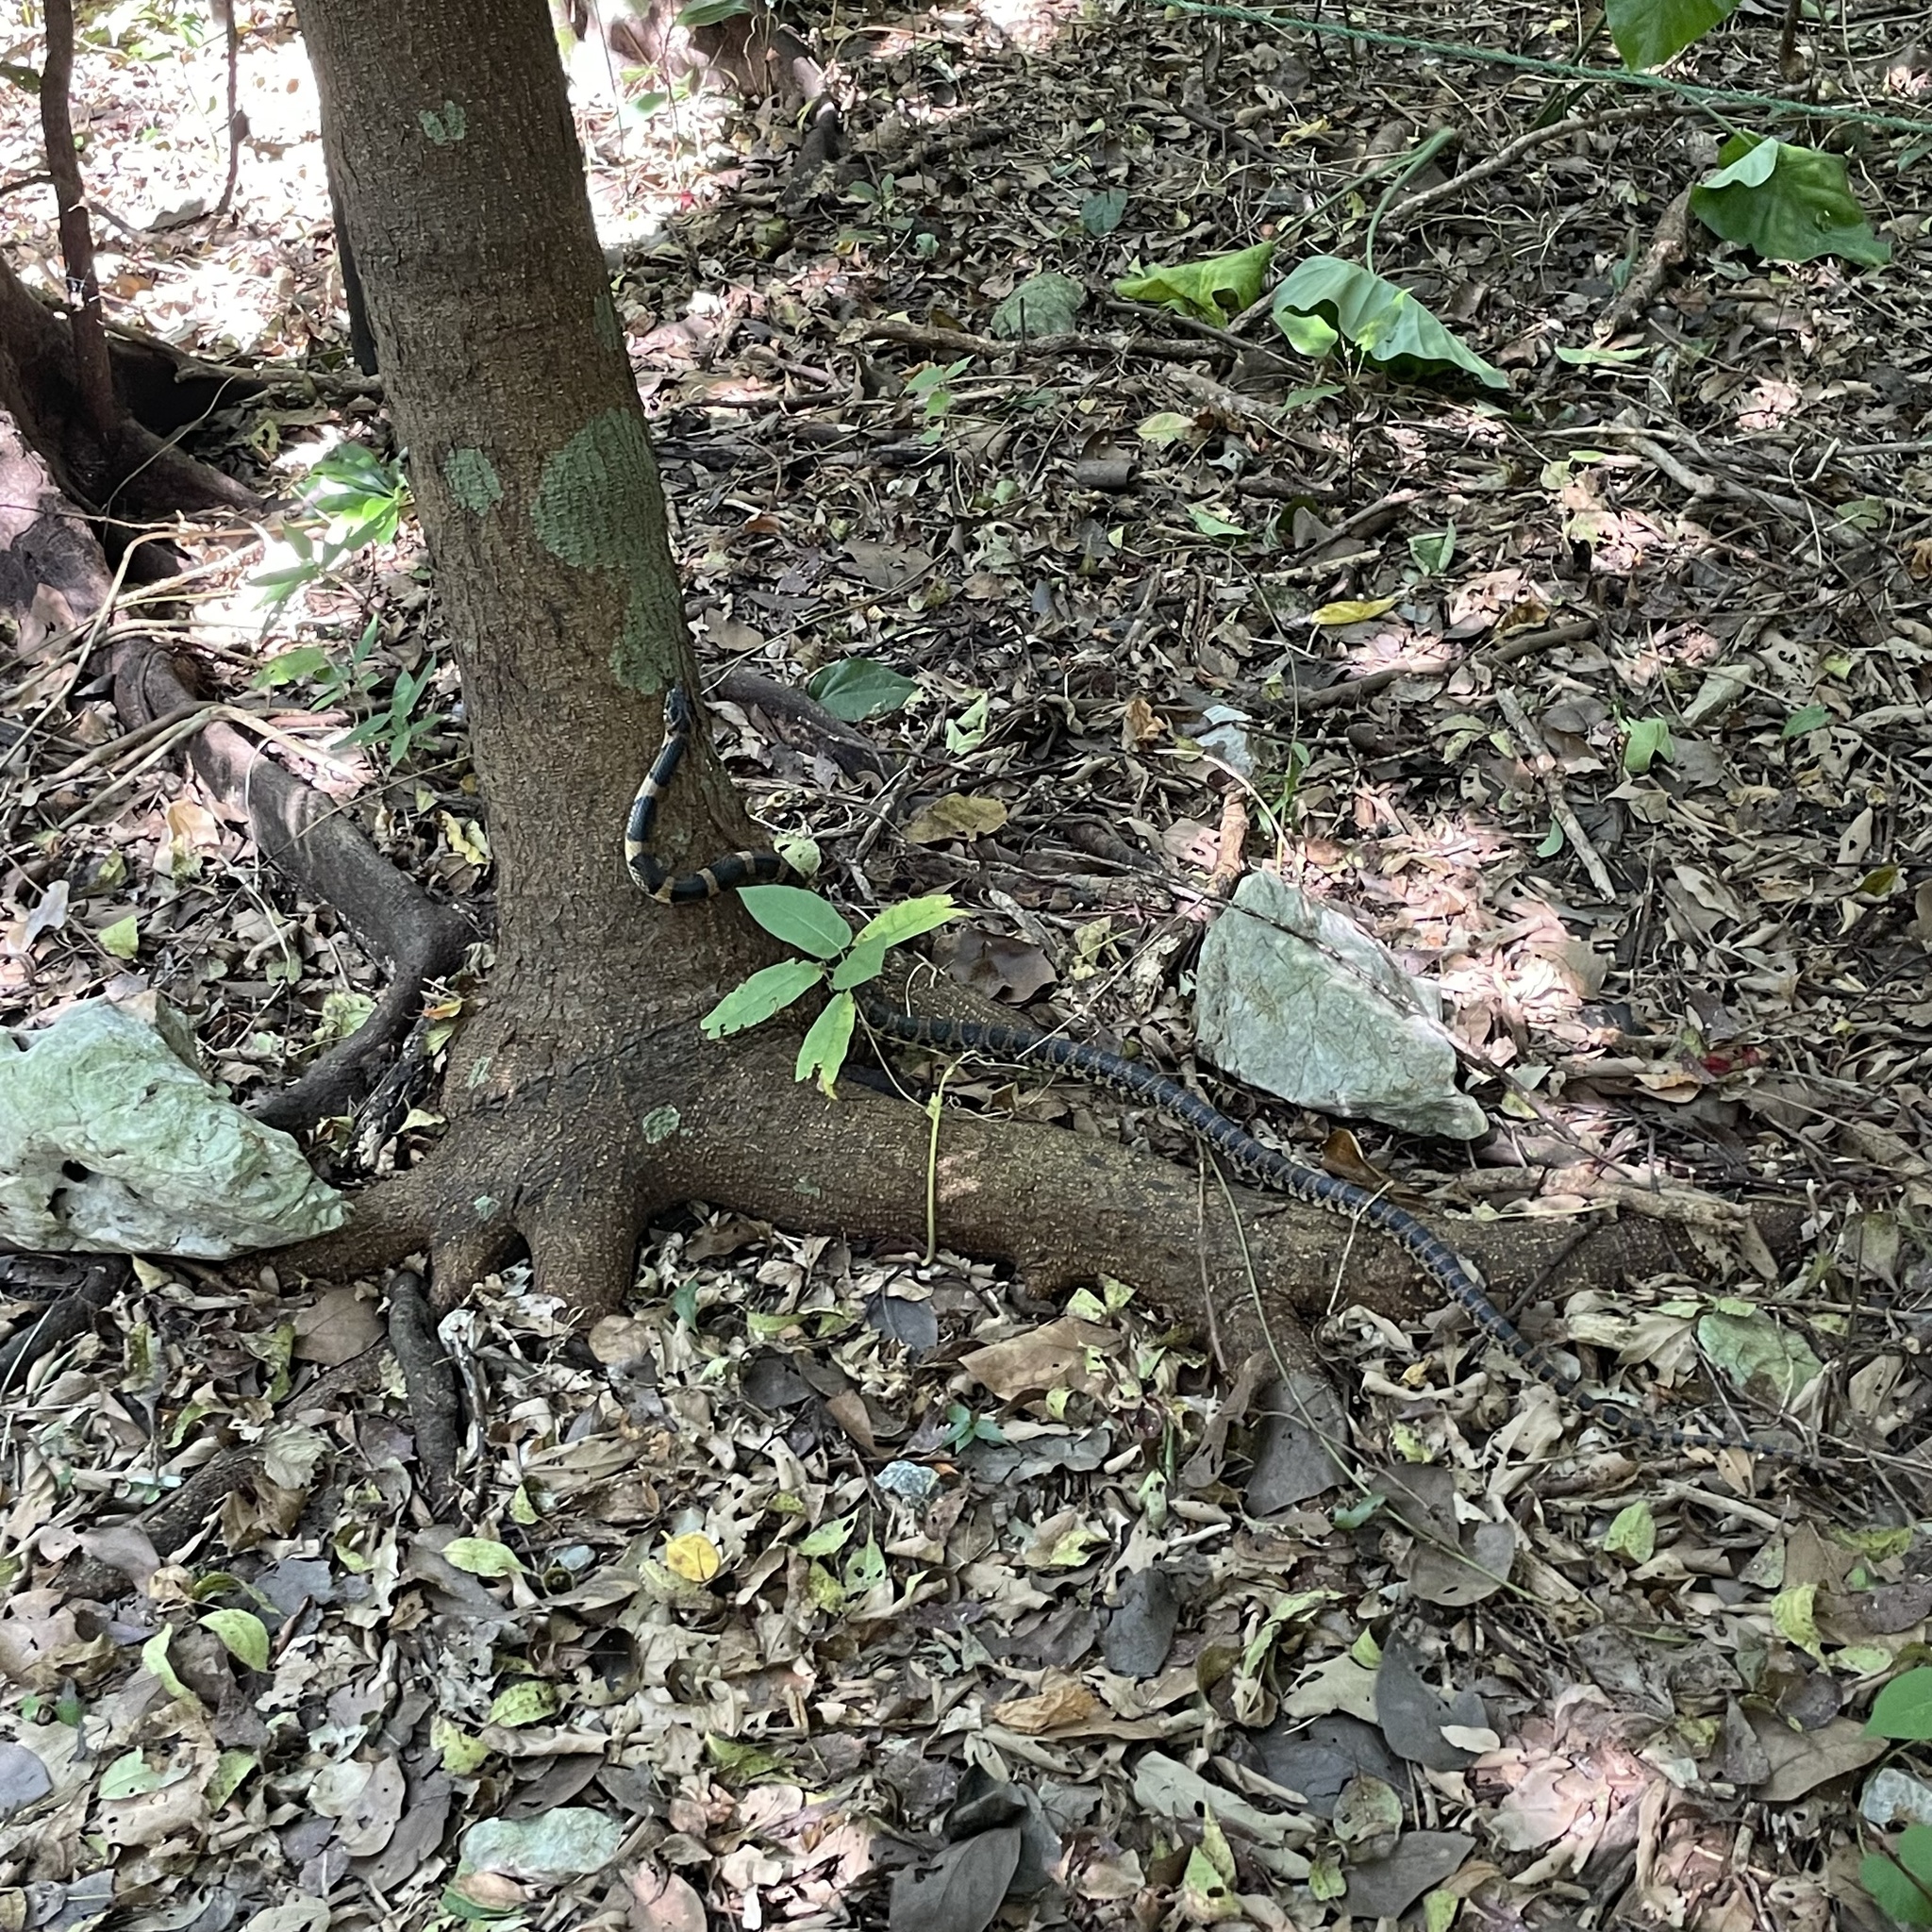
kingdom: Animalia
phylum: Chordata
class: Squamata
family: Colubridae
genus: Lycodon
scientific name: Lycodon semicarinatus
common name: Loo-choo big-tooth snake
